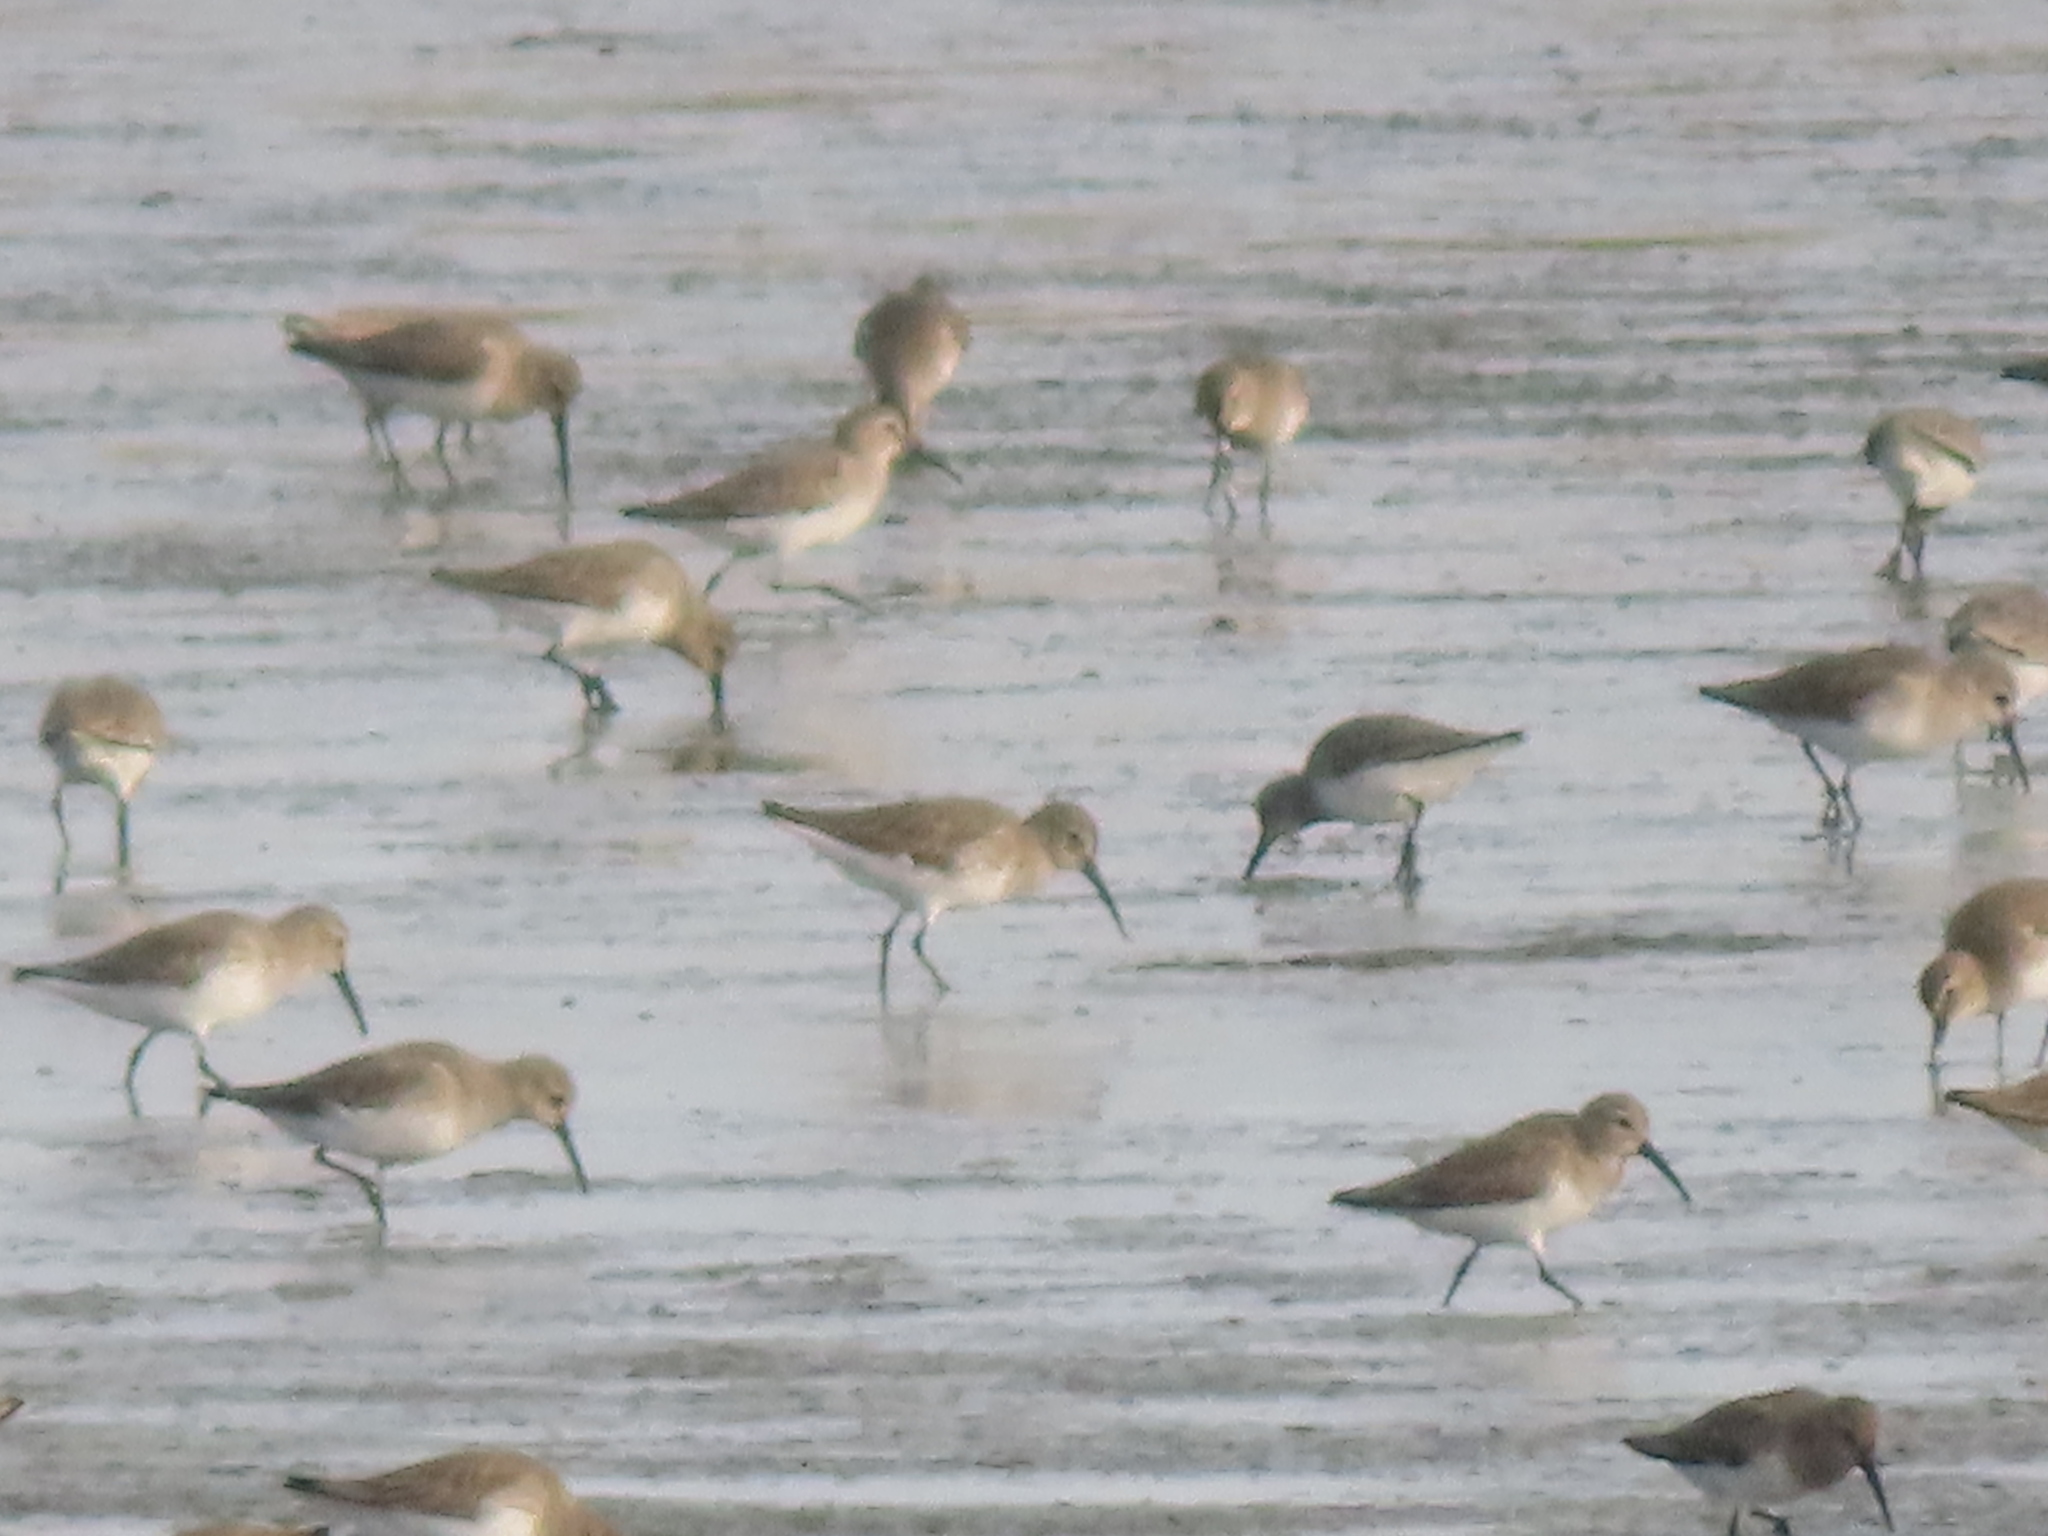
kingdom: Animalia
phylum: Chordata
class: Aves
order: Charadriiformes
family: Scolopacidae
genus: Calidris
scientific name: Calidris alpina
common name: Dunlin
